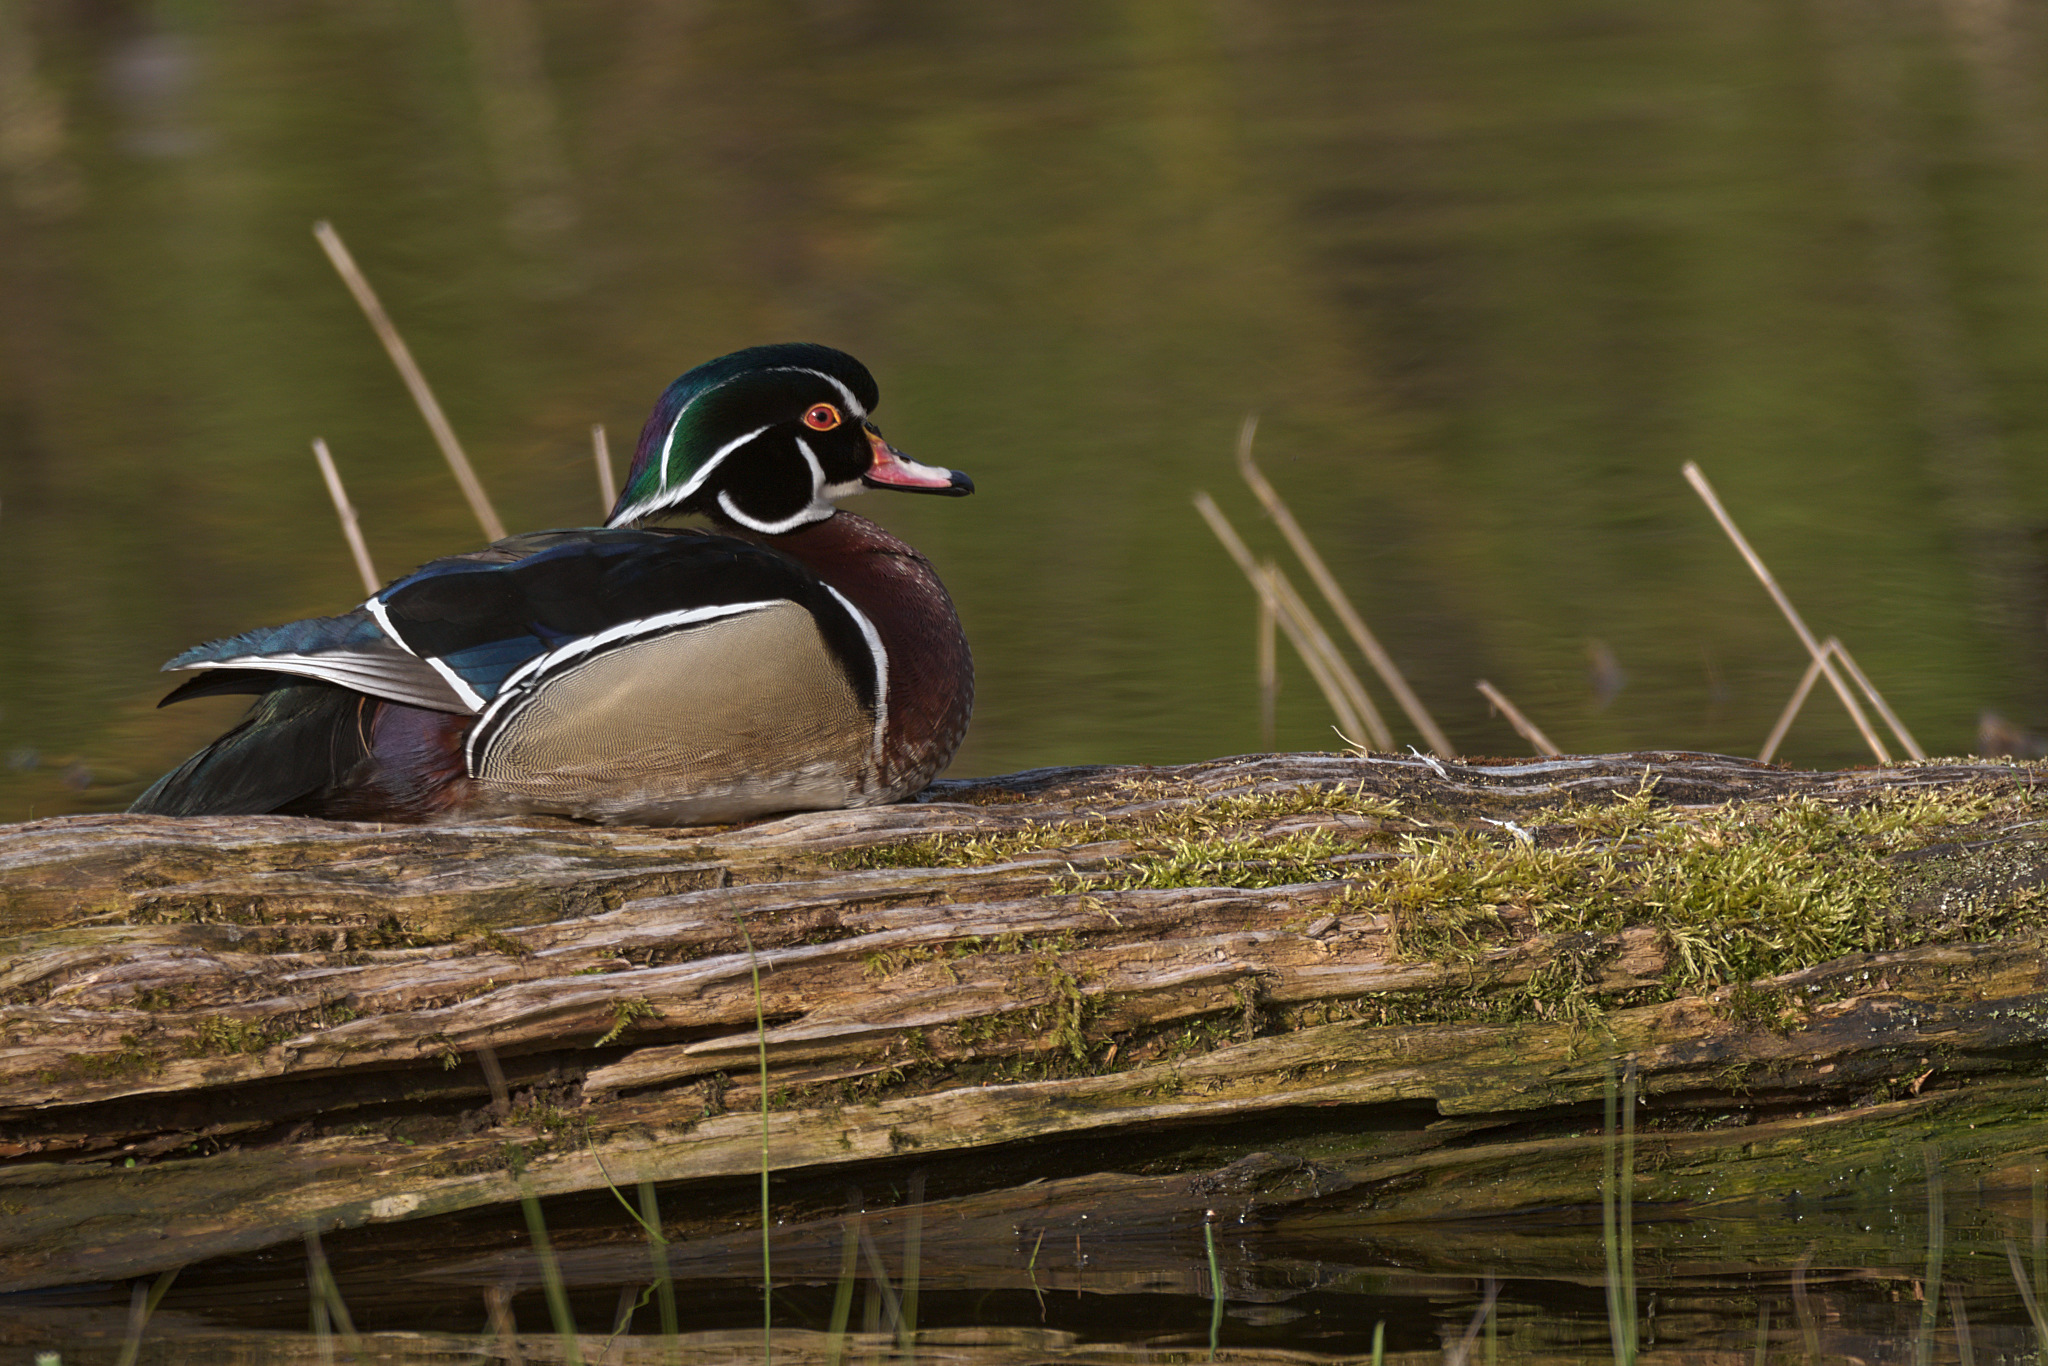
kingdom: Animalia
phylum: Chordata
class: Aves
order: Anseriformes
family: Anatidae
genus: Aix
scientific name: Aix sponsa
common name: Wood duck
